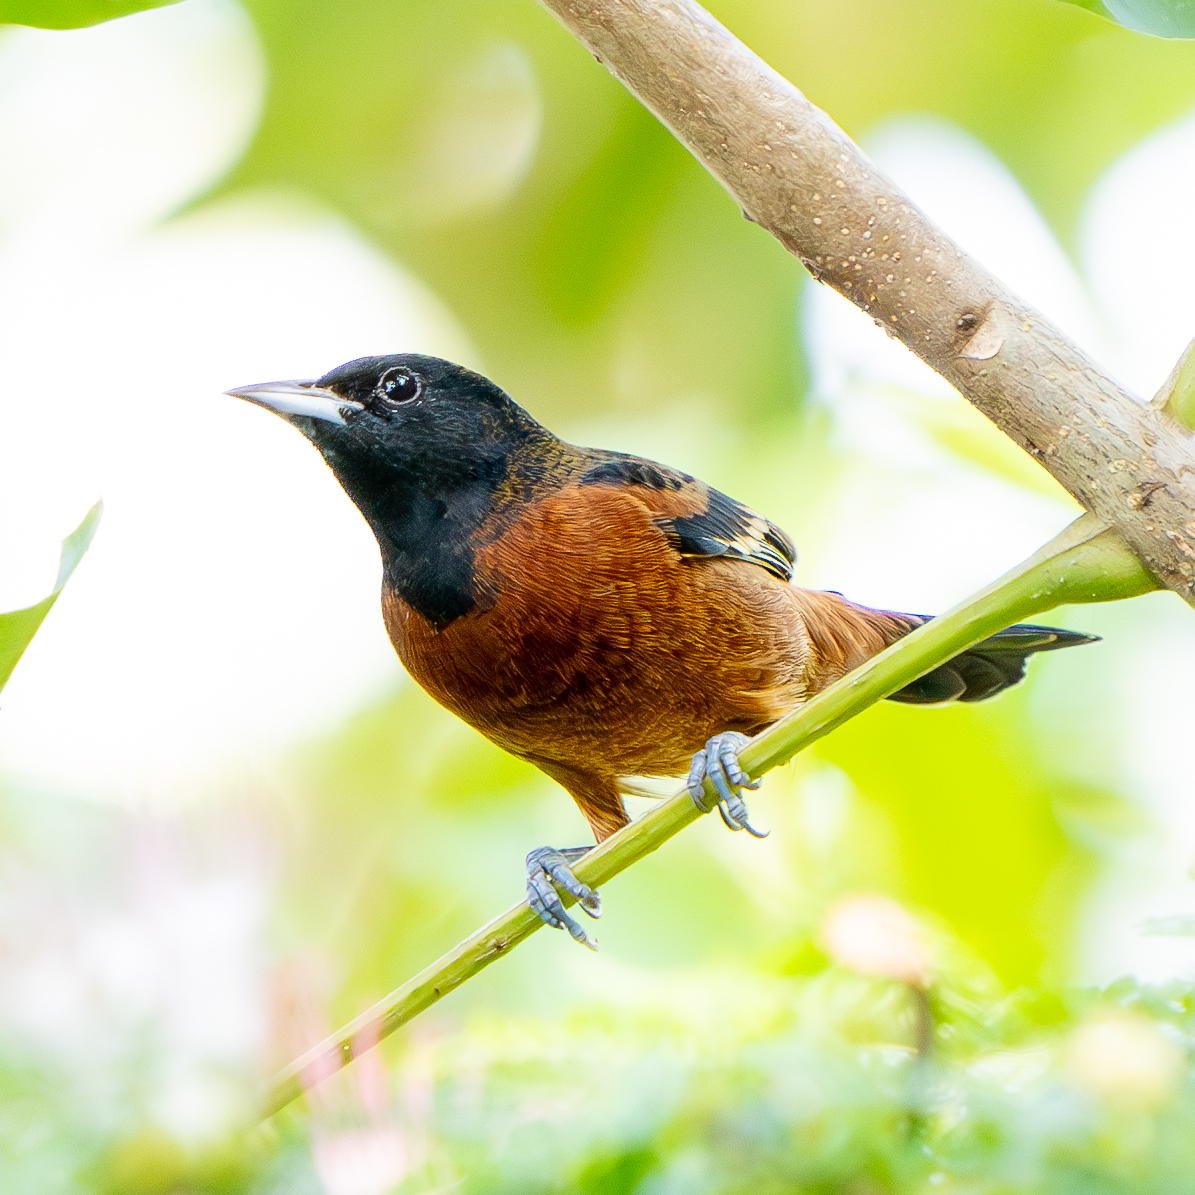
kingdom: Animalia
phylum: Chordata
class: Aves
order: Passeriformes
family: Icteridae
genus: Icterus
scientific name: Icterus spurius
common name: Orchard oriole
